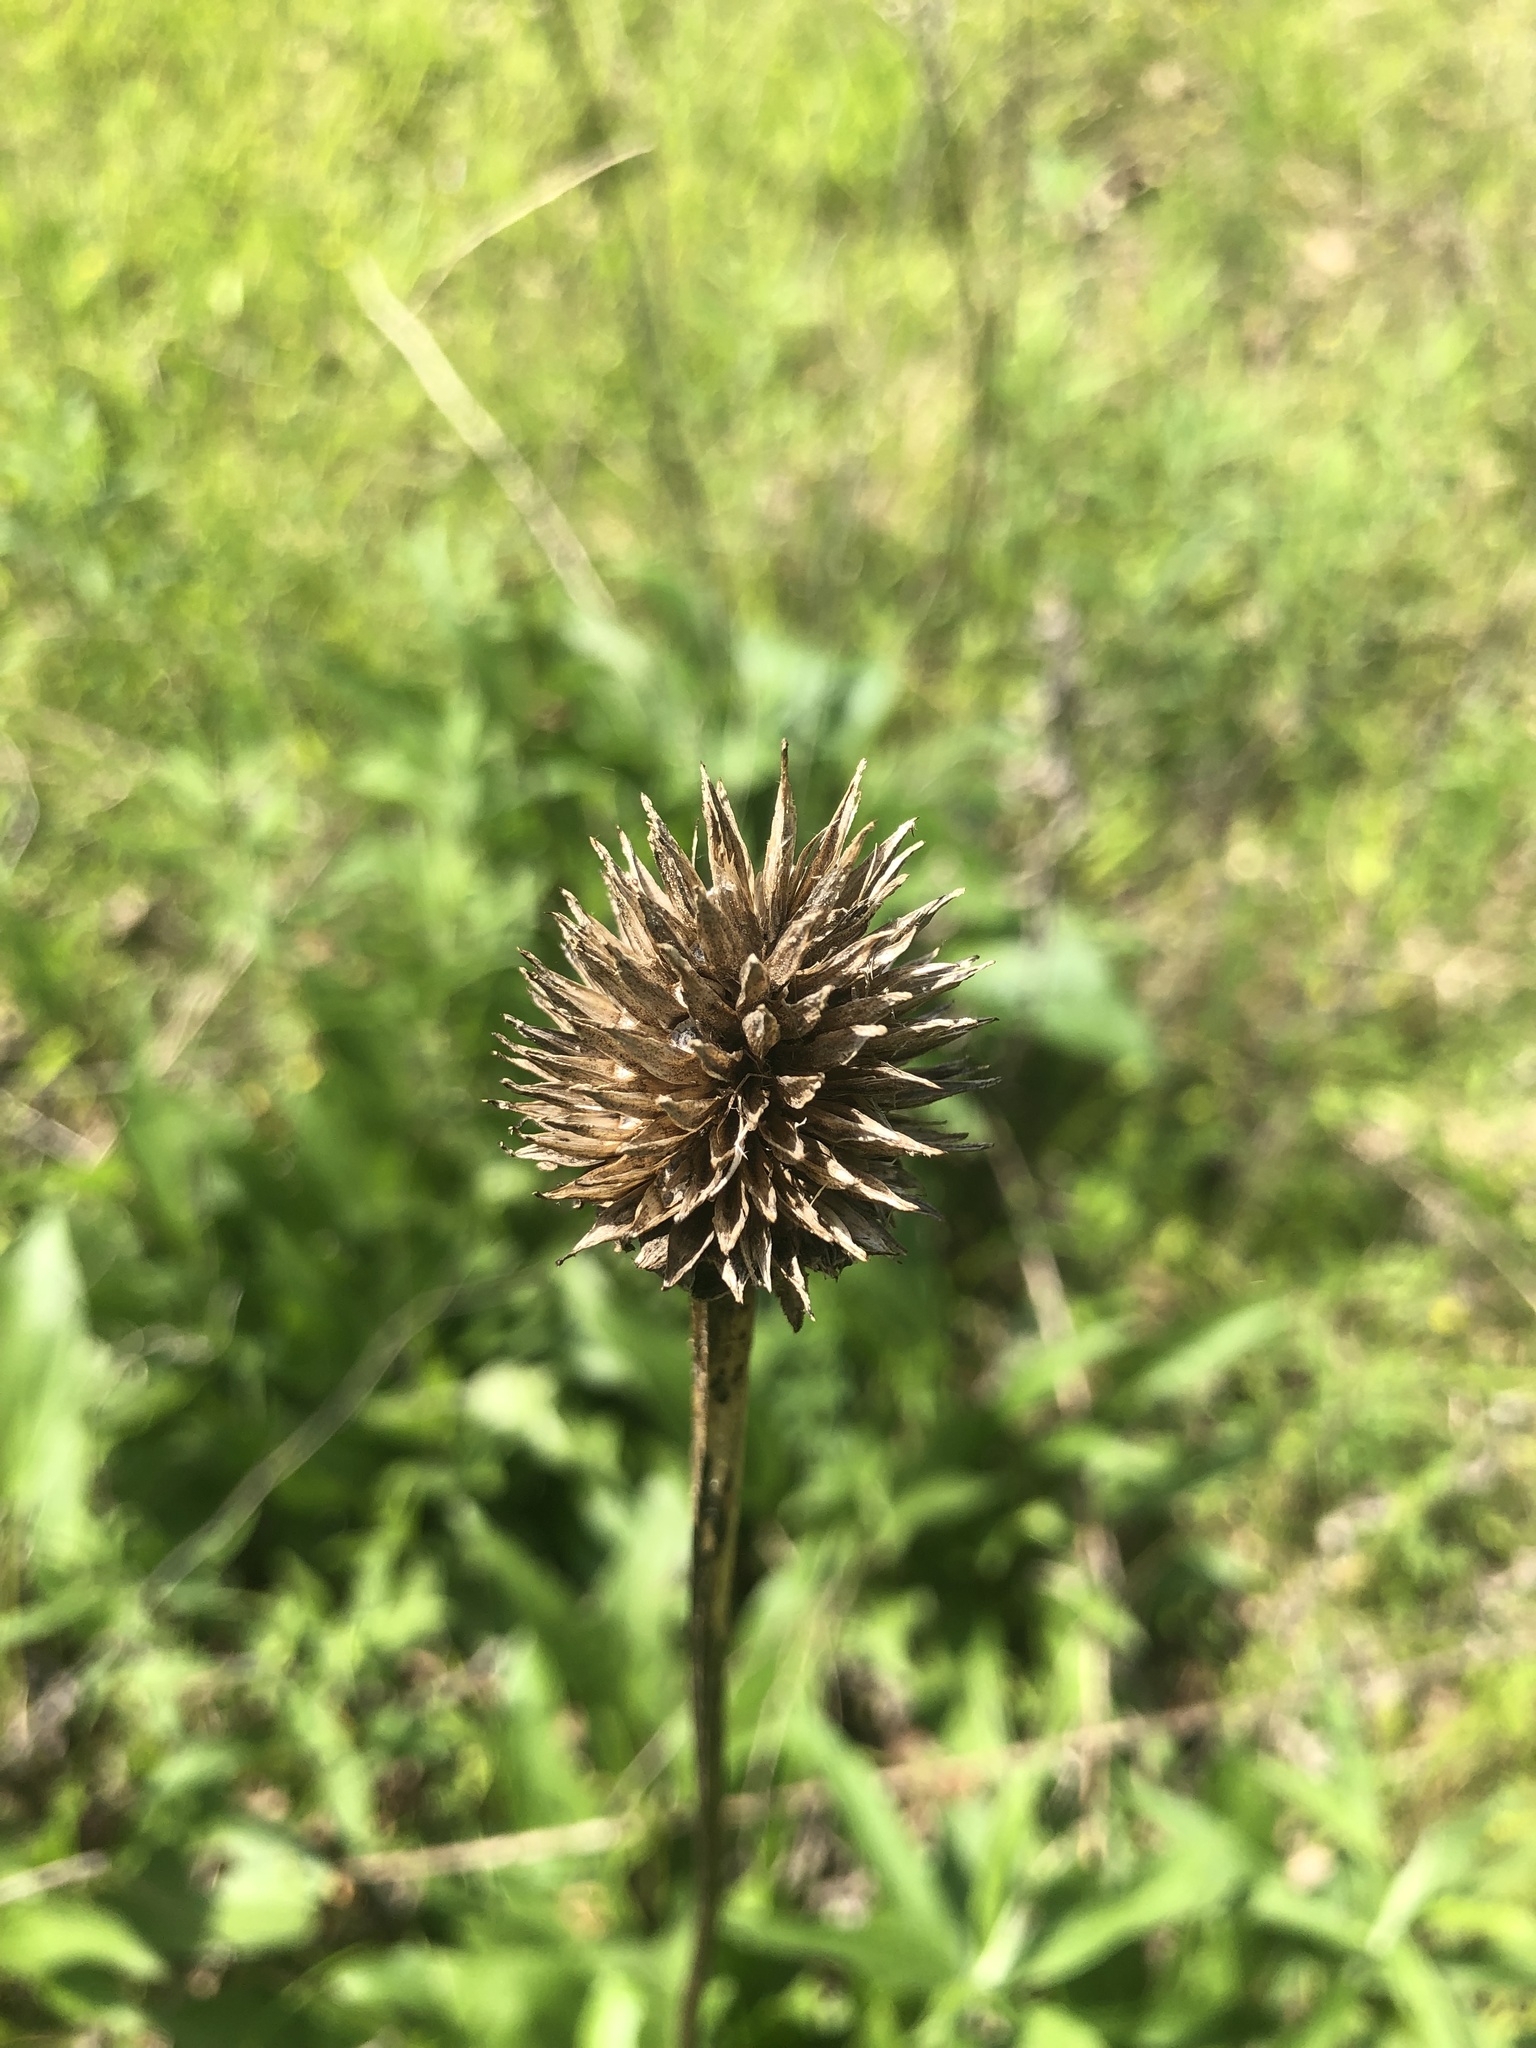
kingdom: Plantae
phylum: Tracheophyta
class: Magnoliopsida
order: Asterales
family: Asteraceae
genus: Echinacea
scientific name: Echinacea laevigata
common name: Smooth coneflower
